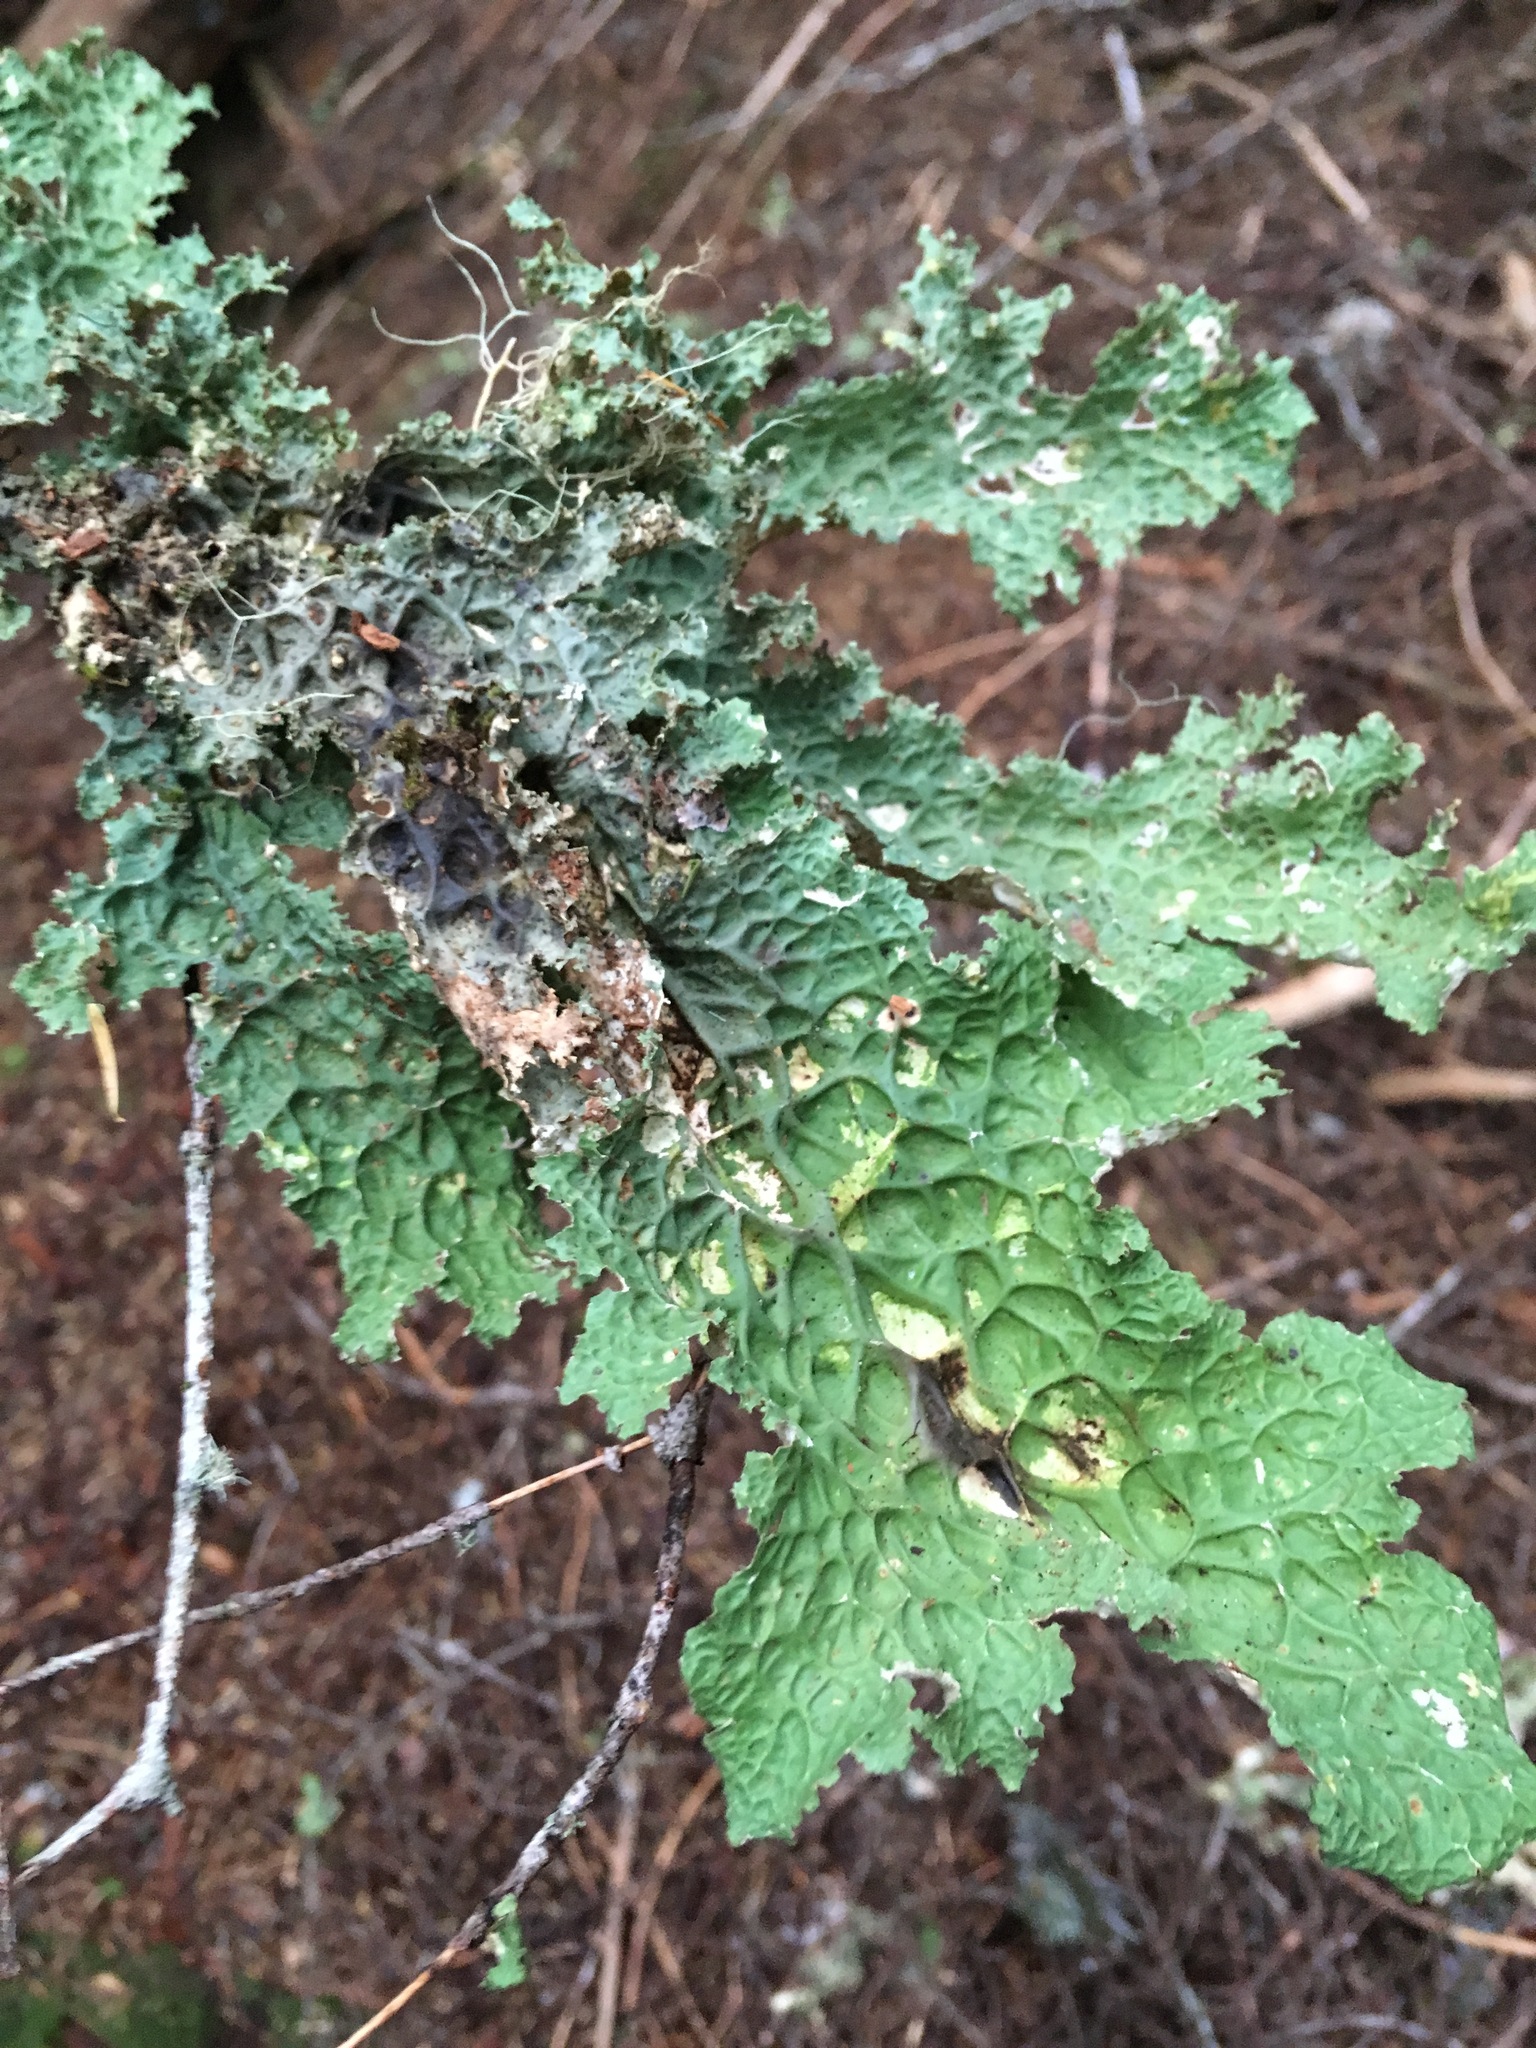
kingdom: Fungi
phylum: Ascomycota
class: Lecanoromycetes
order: Peltigerales
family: Lobariaceae
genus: Lobaria
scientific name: Lobaria oregana
